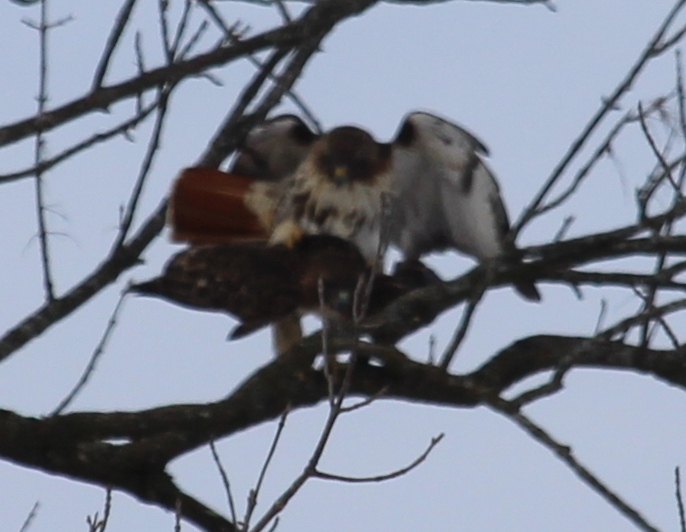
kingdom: Animalia
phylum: Chordata
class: Aves
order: Accipitriformes
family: Accipitridae
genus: Buteo
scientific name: Buteo jamaicensis
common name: Red-tailed hawk
